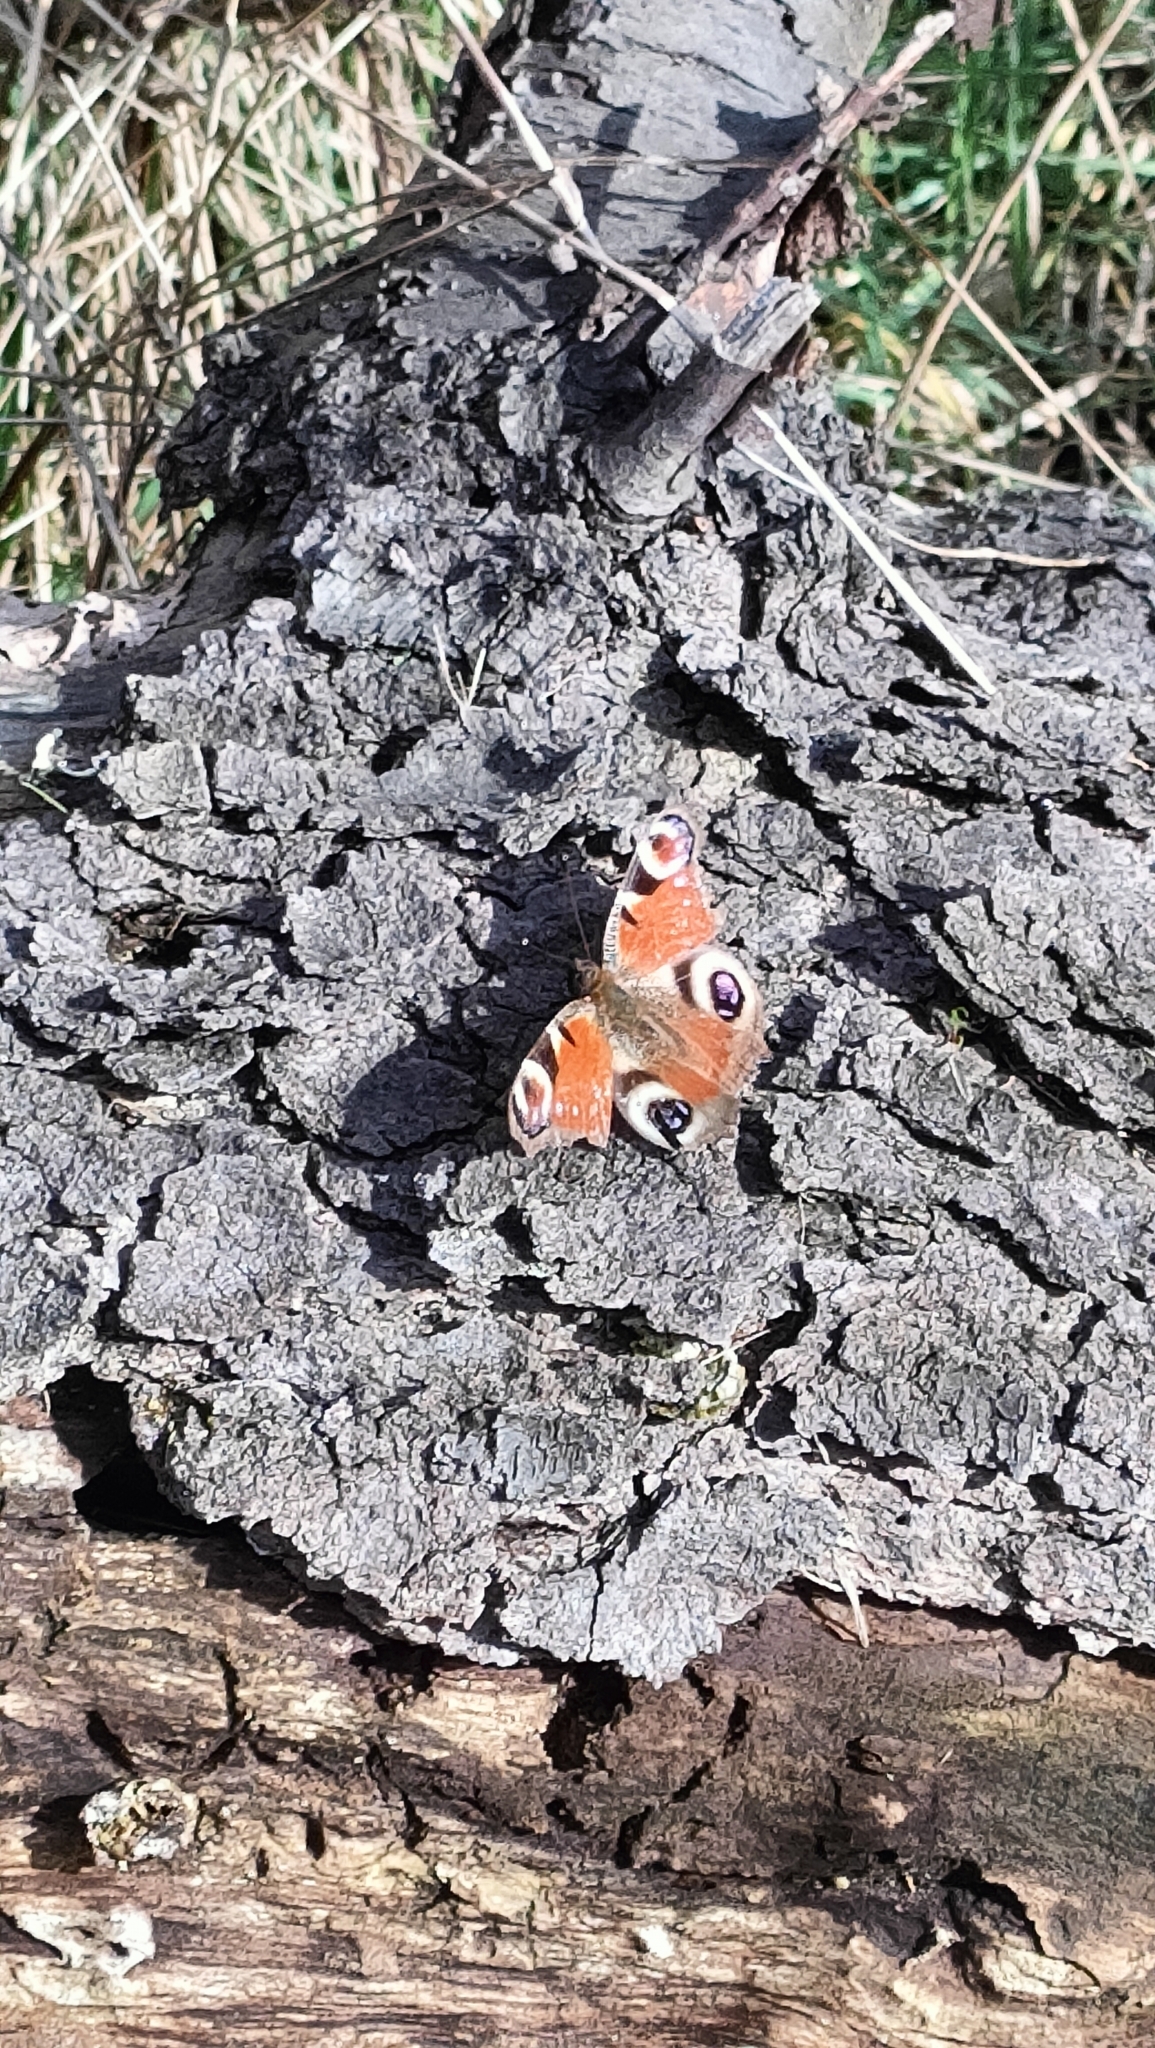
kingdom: Animalia
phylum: Arthropoda
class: Insecta
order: Lepidoptera
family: Nymphalidae
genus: Aglais
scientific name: Aglais io
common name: Peacock
